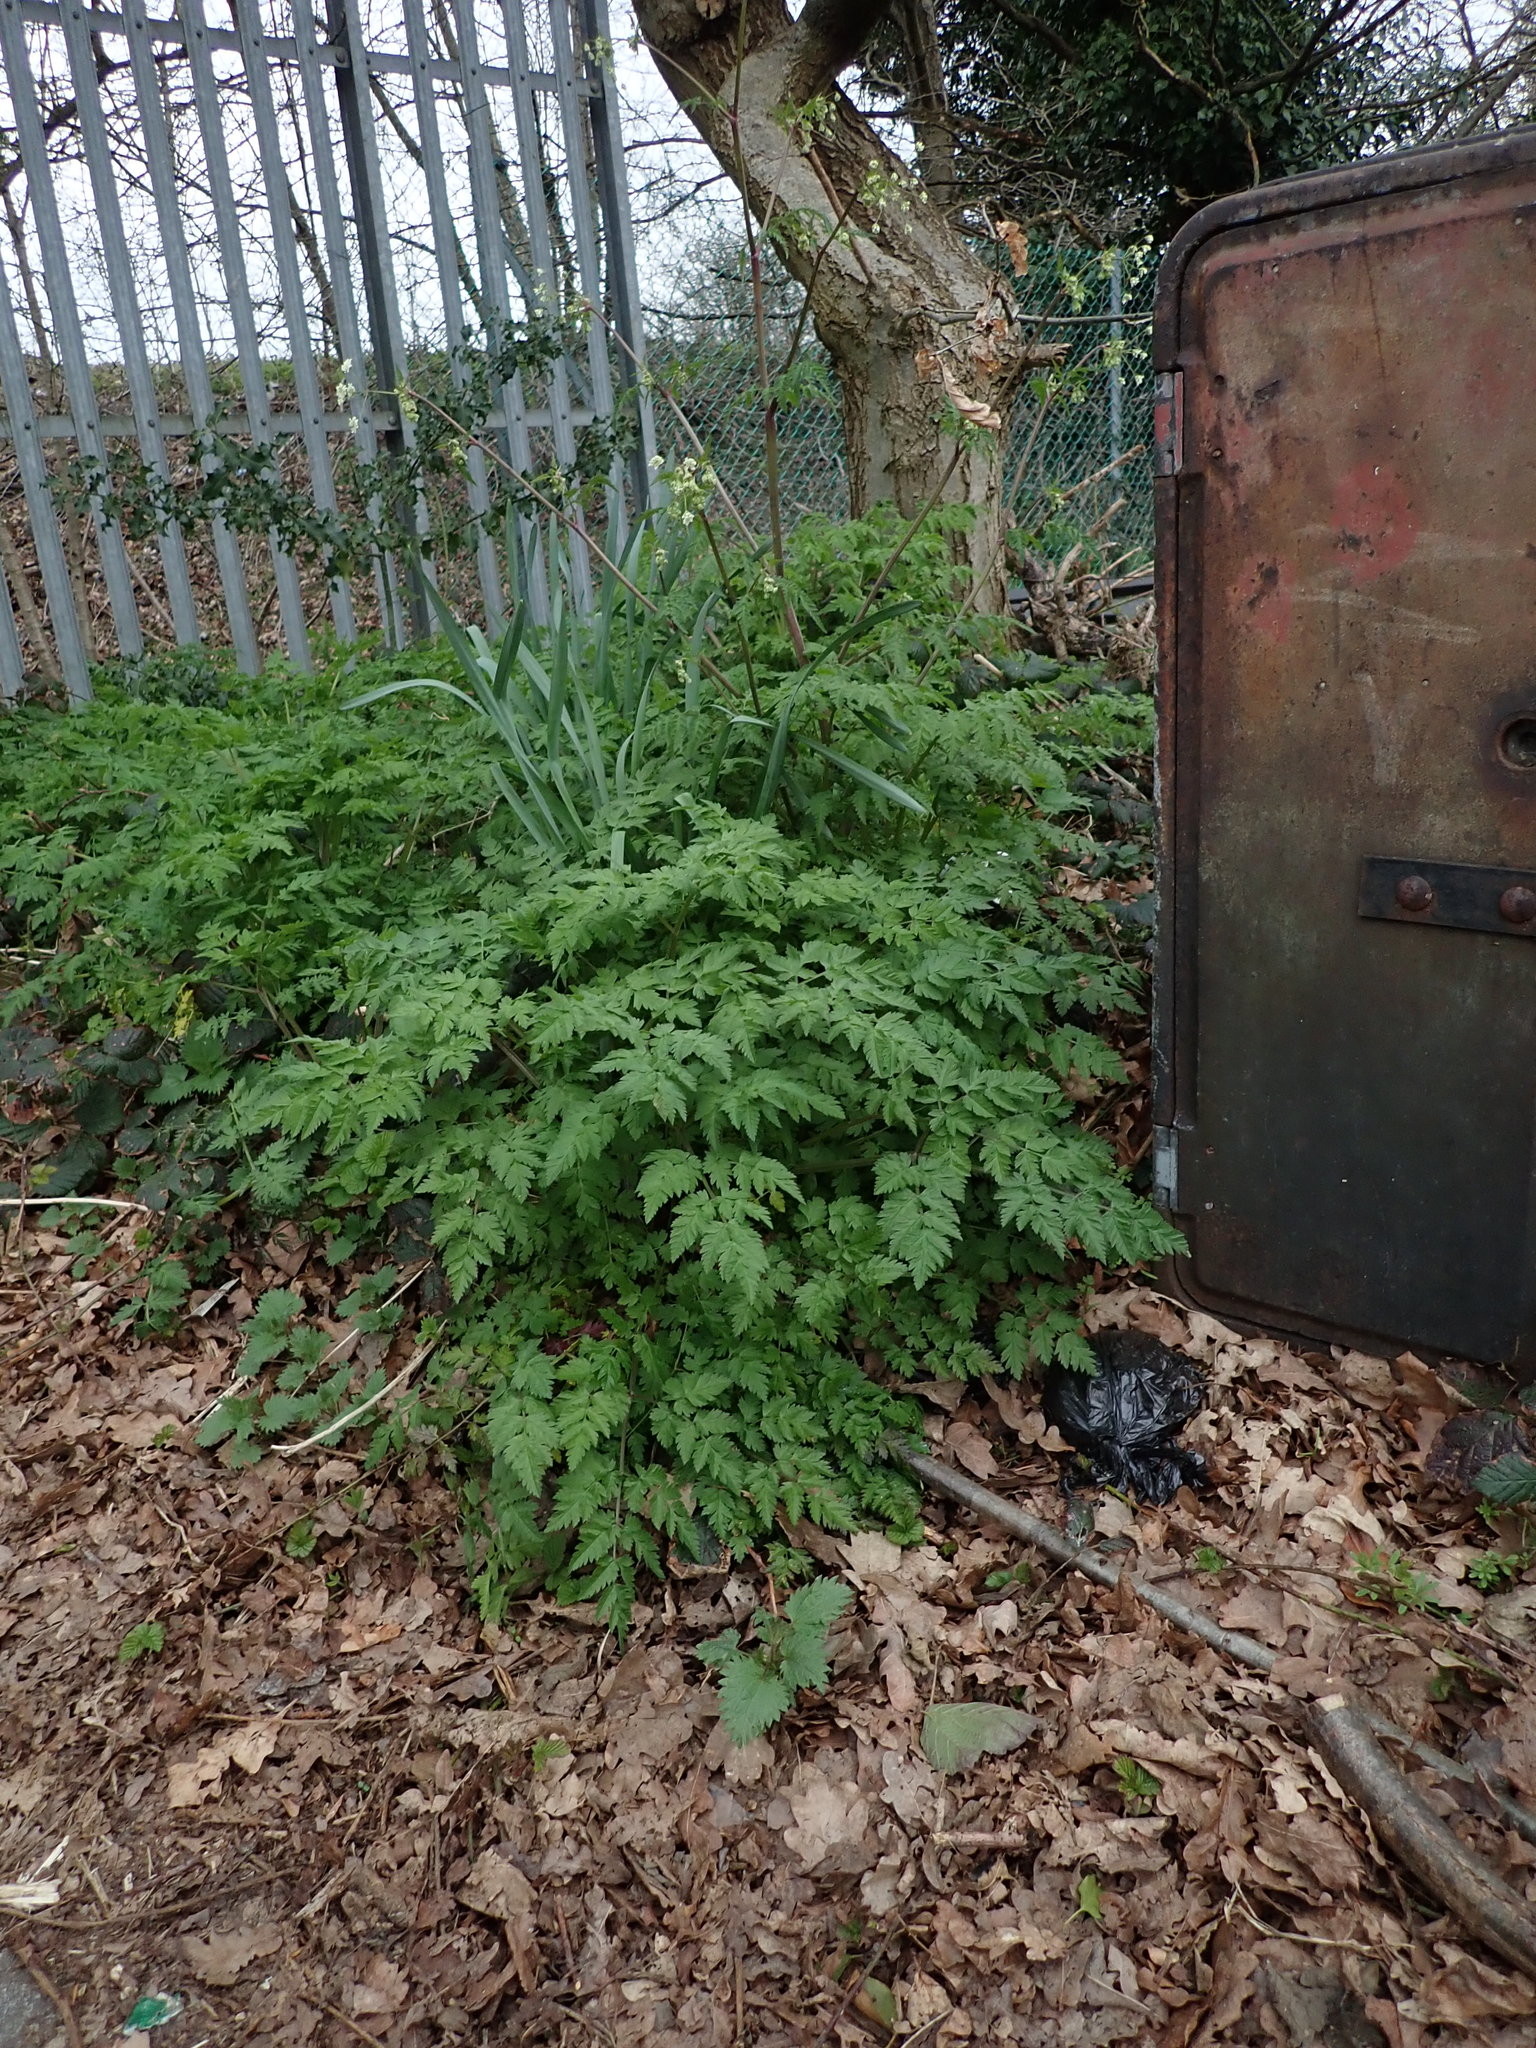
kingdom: Plantae
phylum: Tracheophyta
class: Magnoliopsida
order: Apiales
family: Apiaceae
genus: Anthriscus
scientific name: Anthriscus sylvestris
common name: Cow parsley
